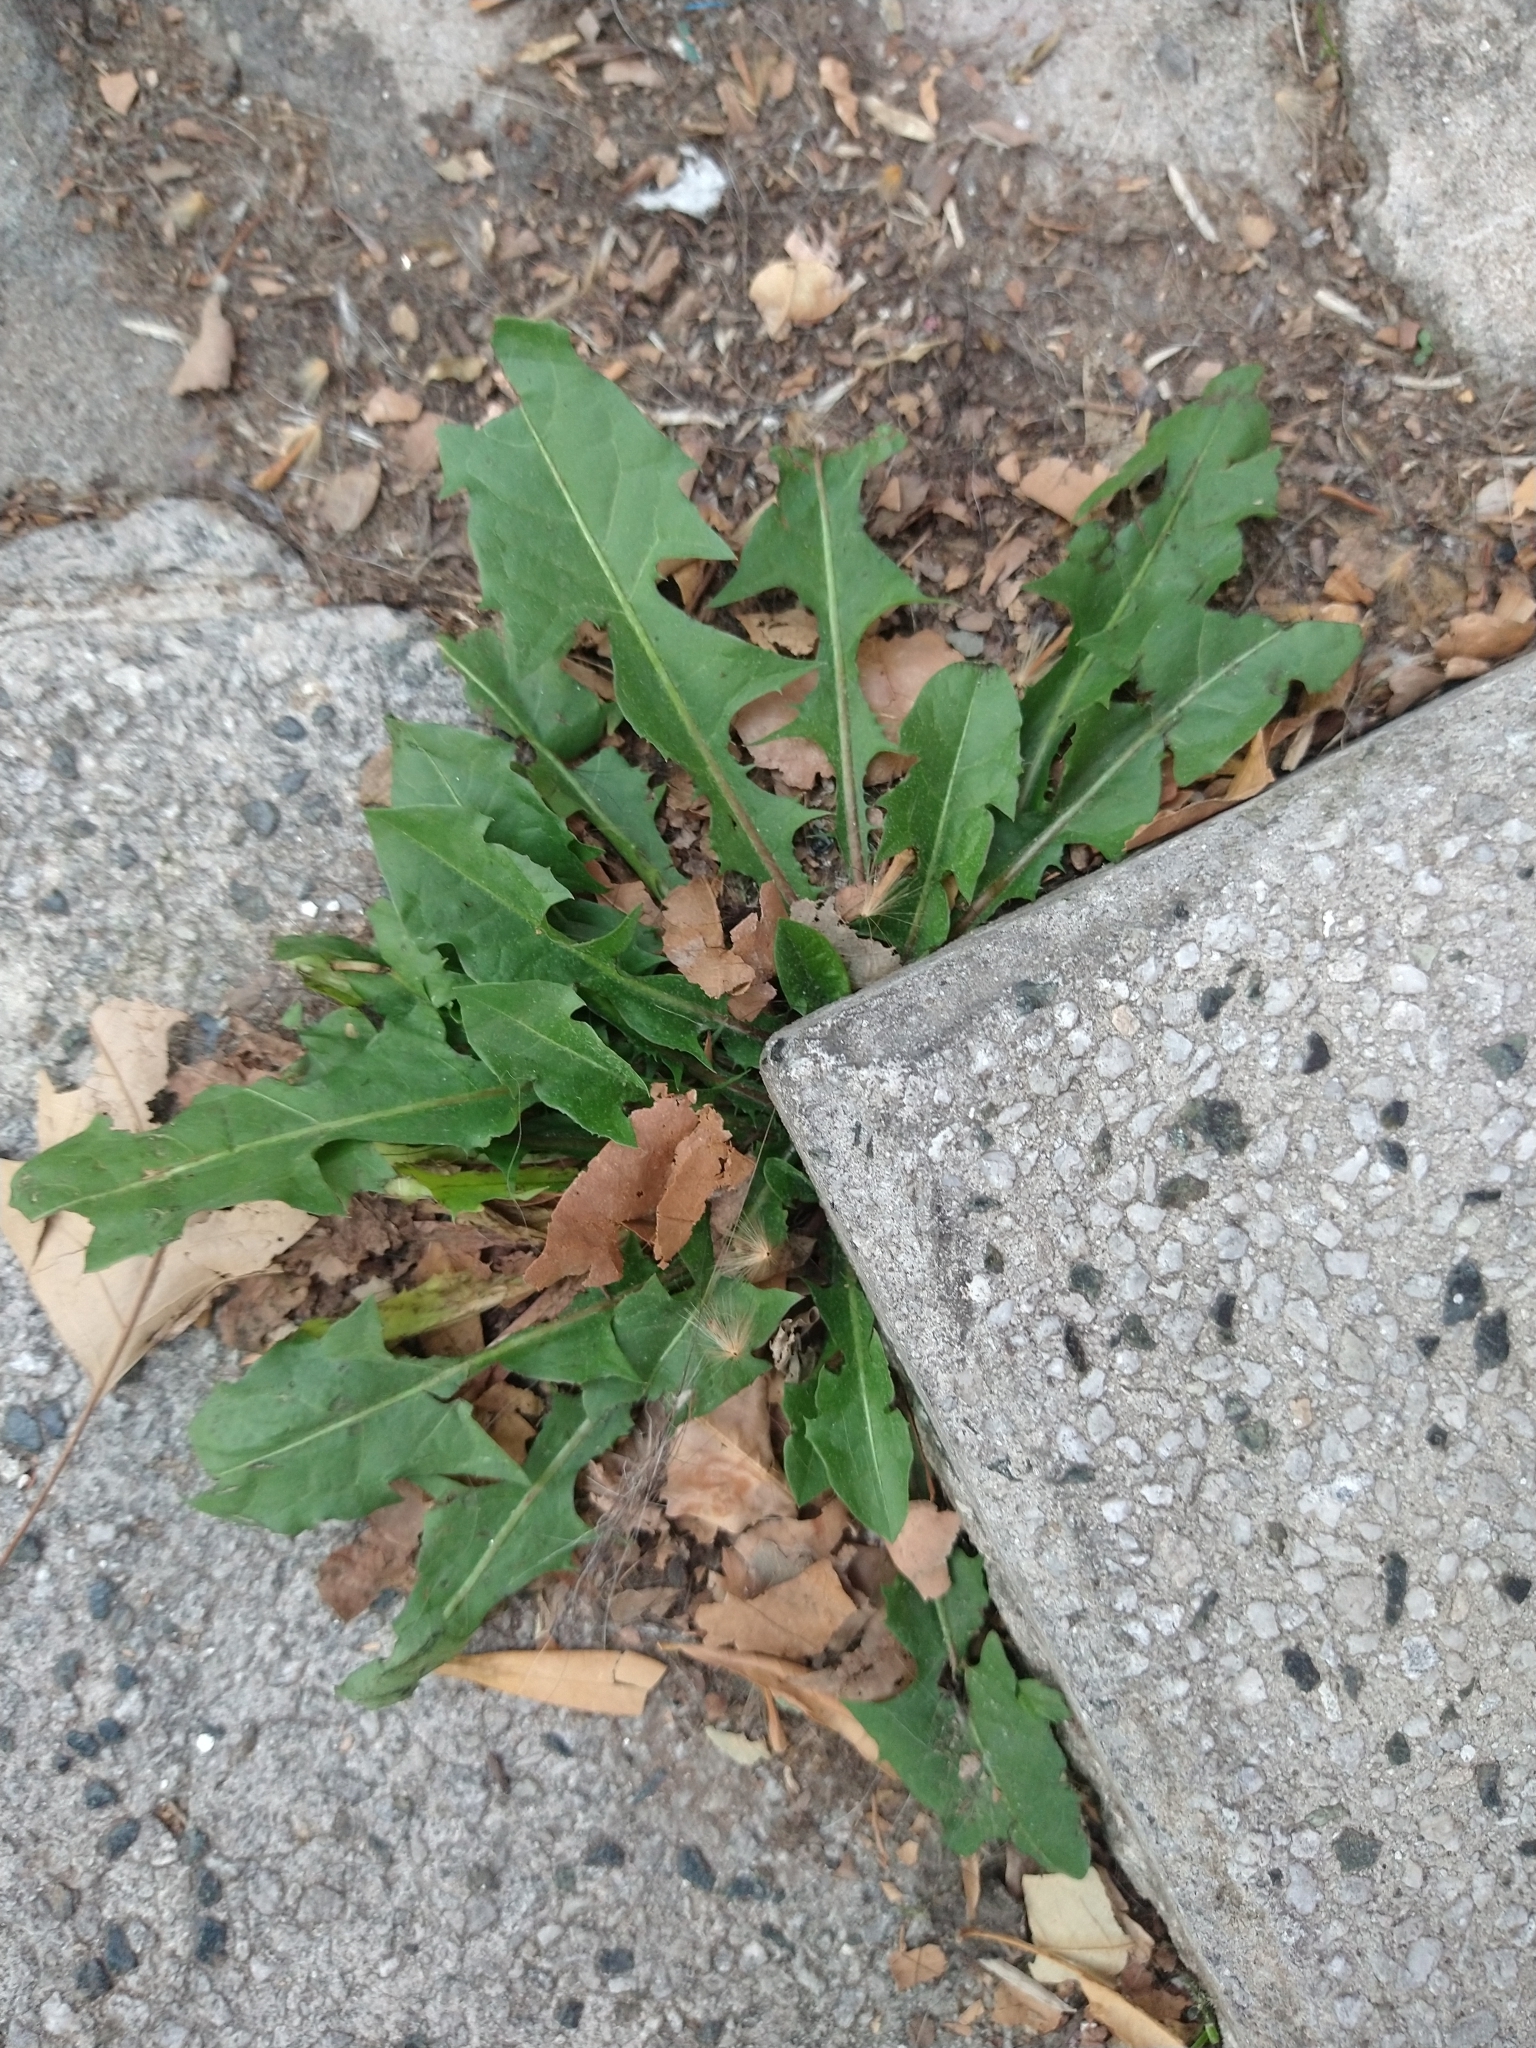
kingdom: Plantae
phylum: Tracheophyta
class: Magnoliopsida
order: Asterales
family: Asteraceae
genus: Taraxacum
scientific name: Taraxacum officinale
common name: Common dandelion
